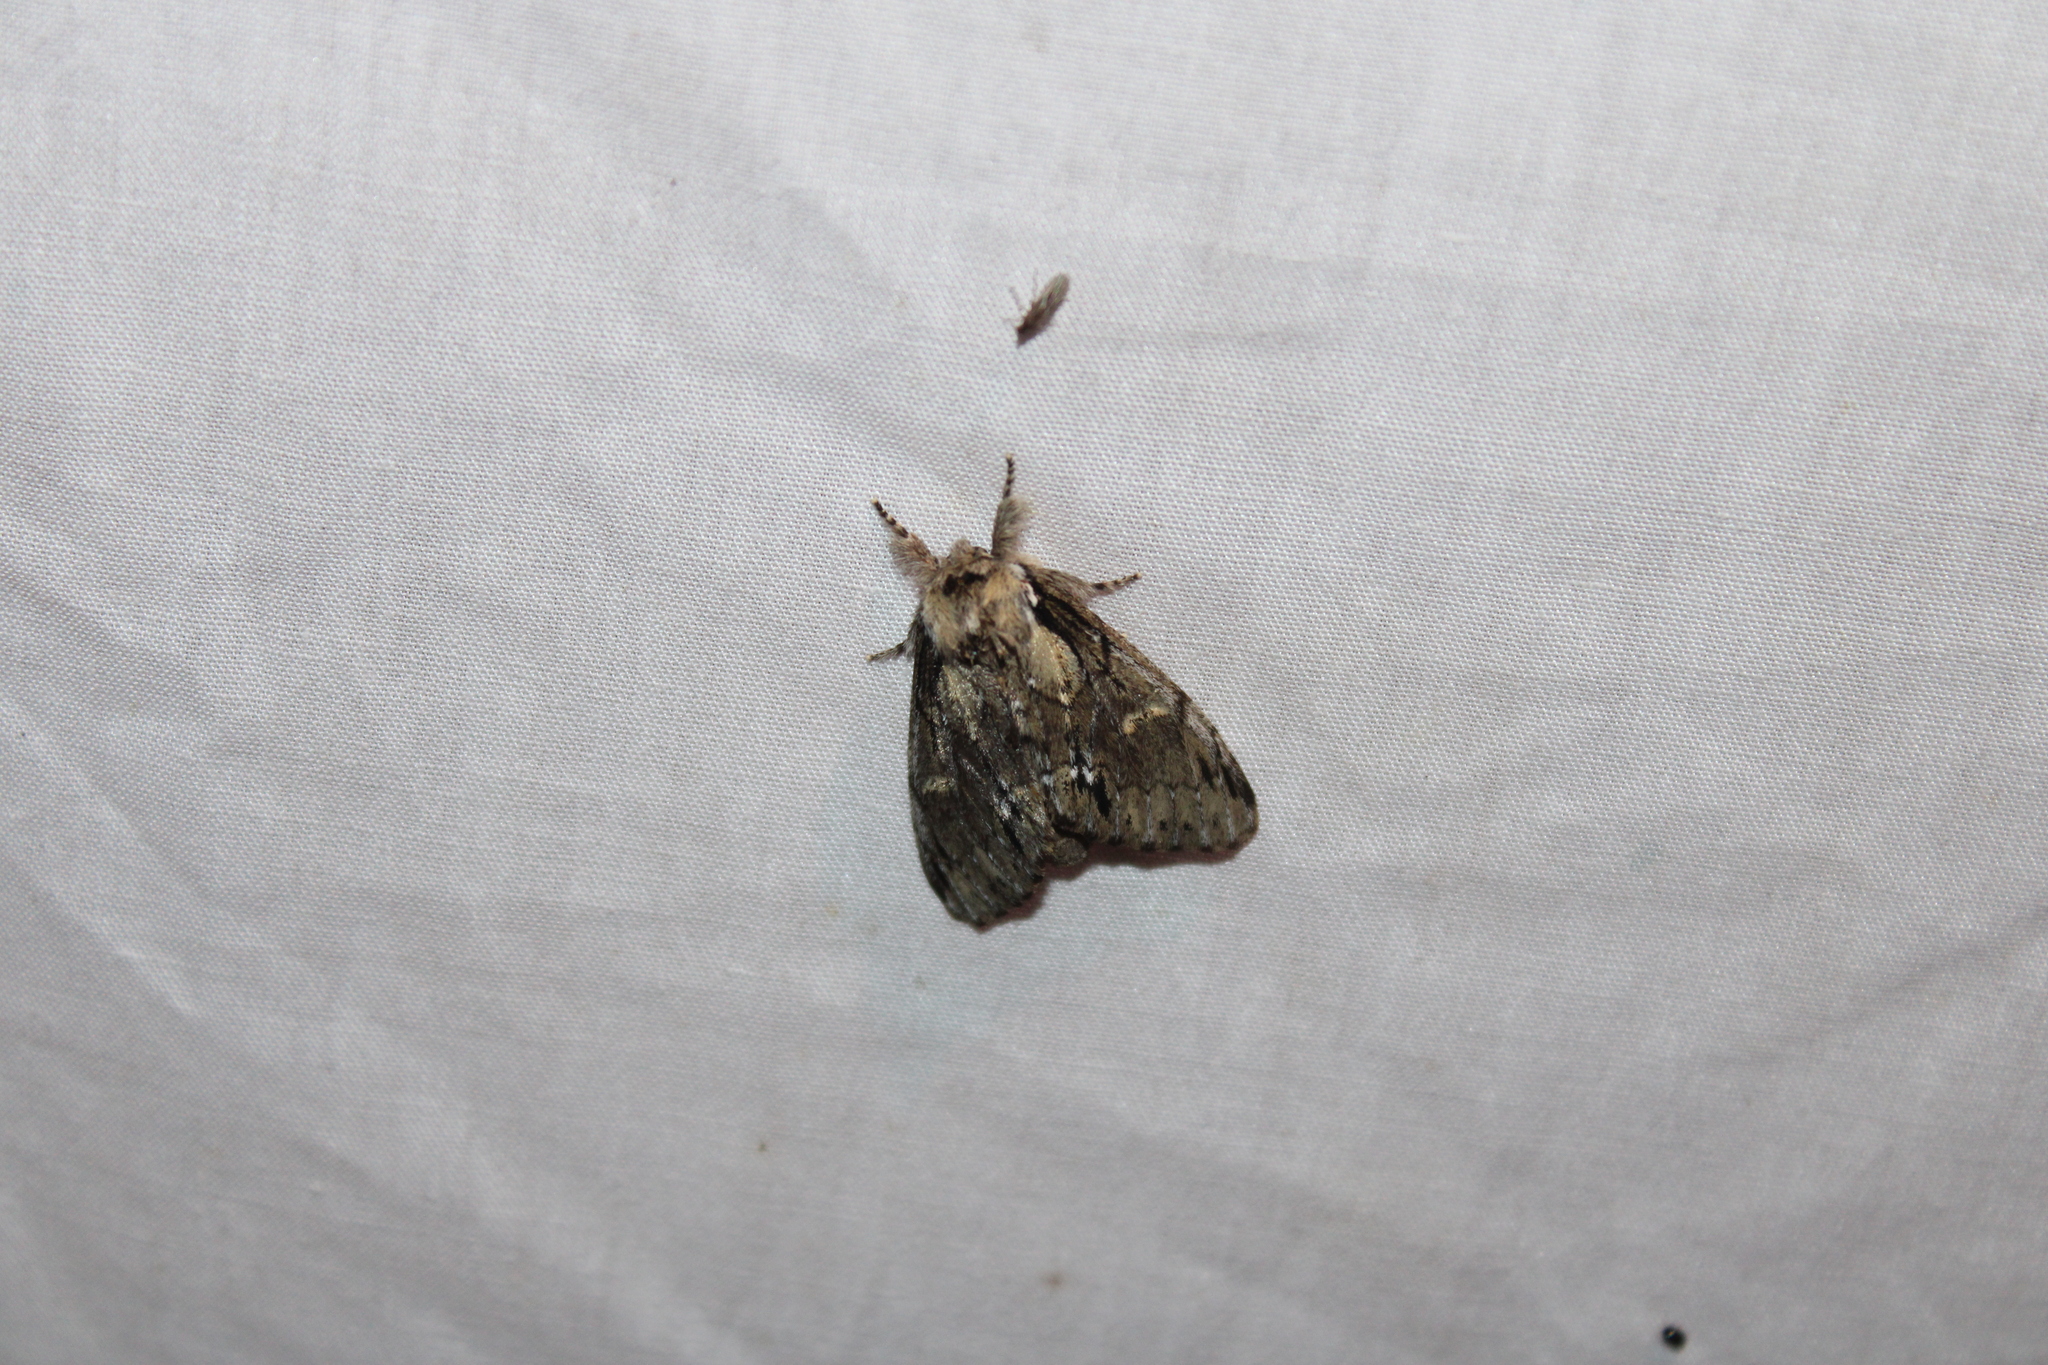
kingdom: Animalia
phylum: Arthropoda
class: Insecta
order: Lepidoptera
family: Notodontidae
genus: Paraeschra
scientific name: Paraeschra georgica
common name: Georgian prominent
